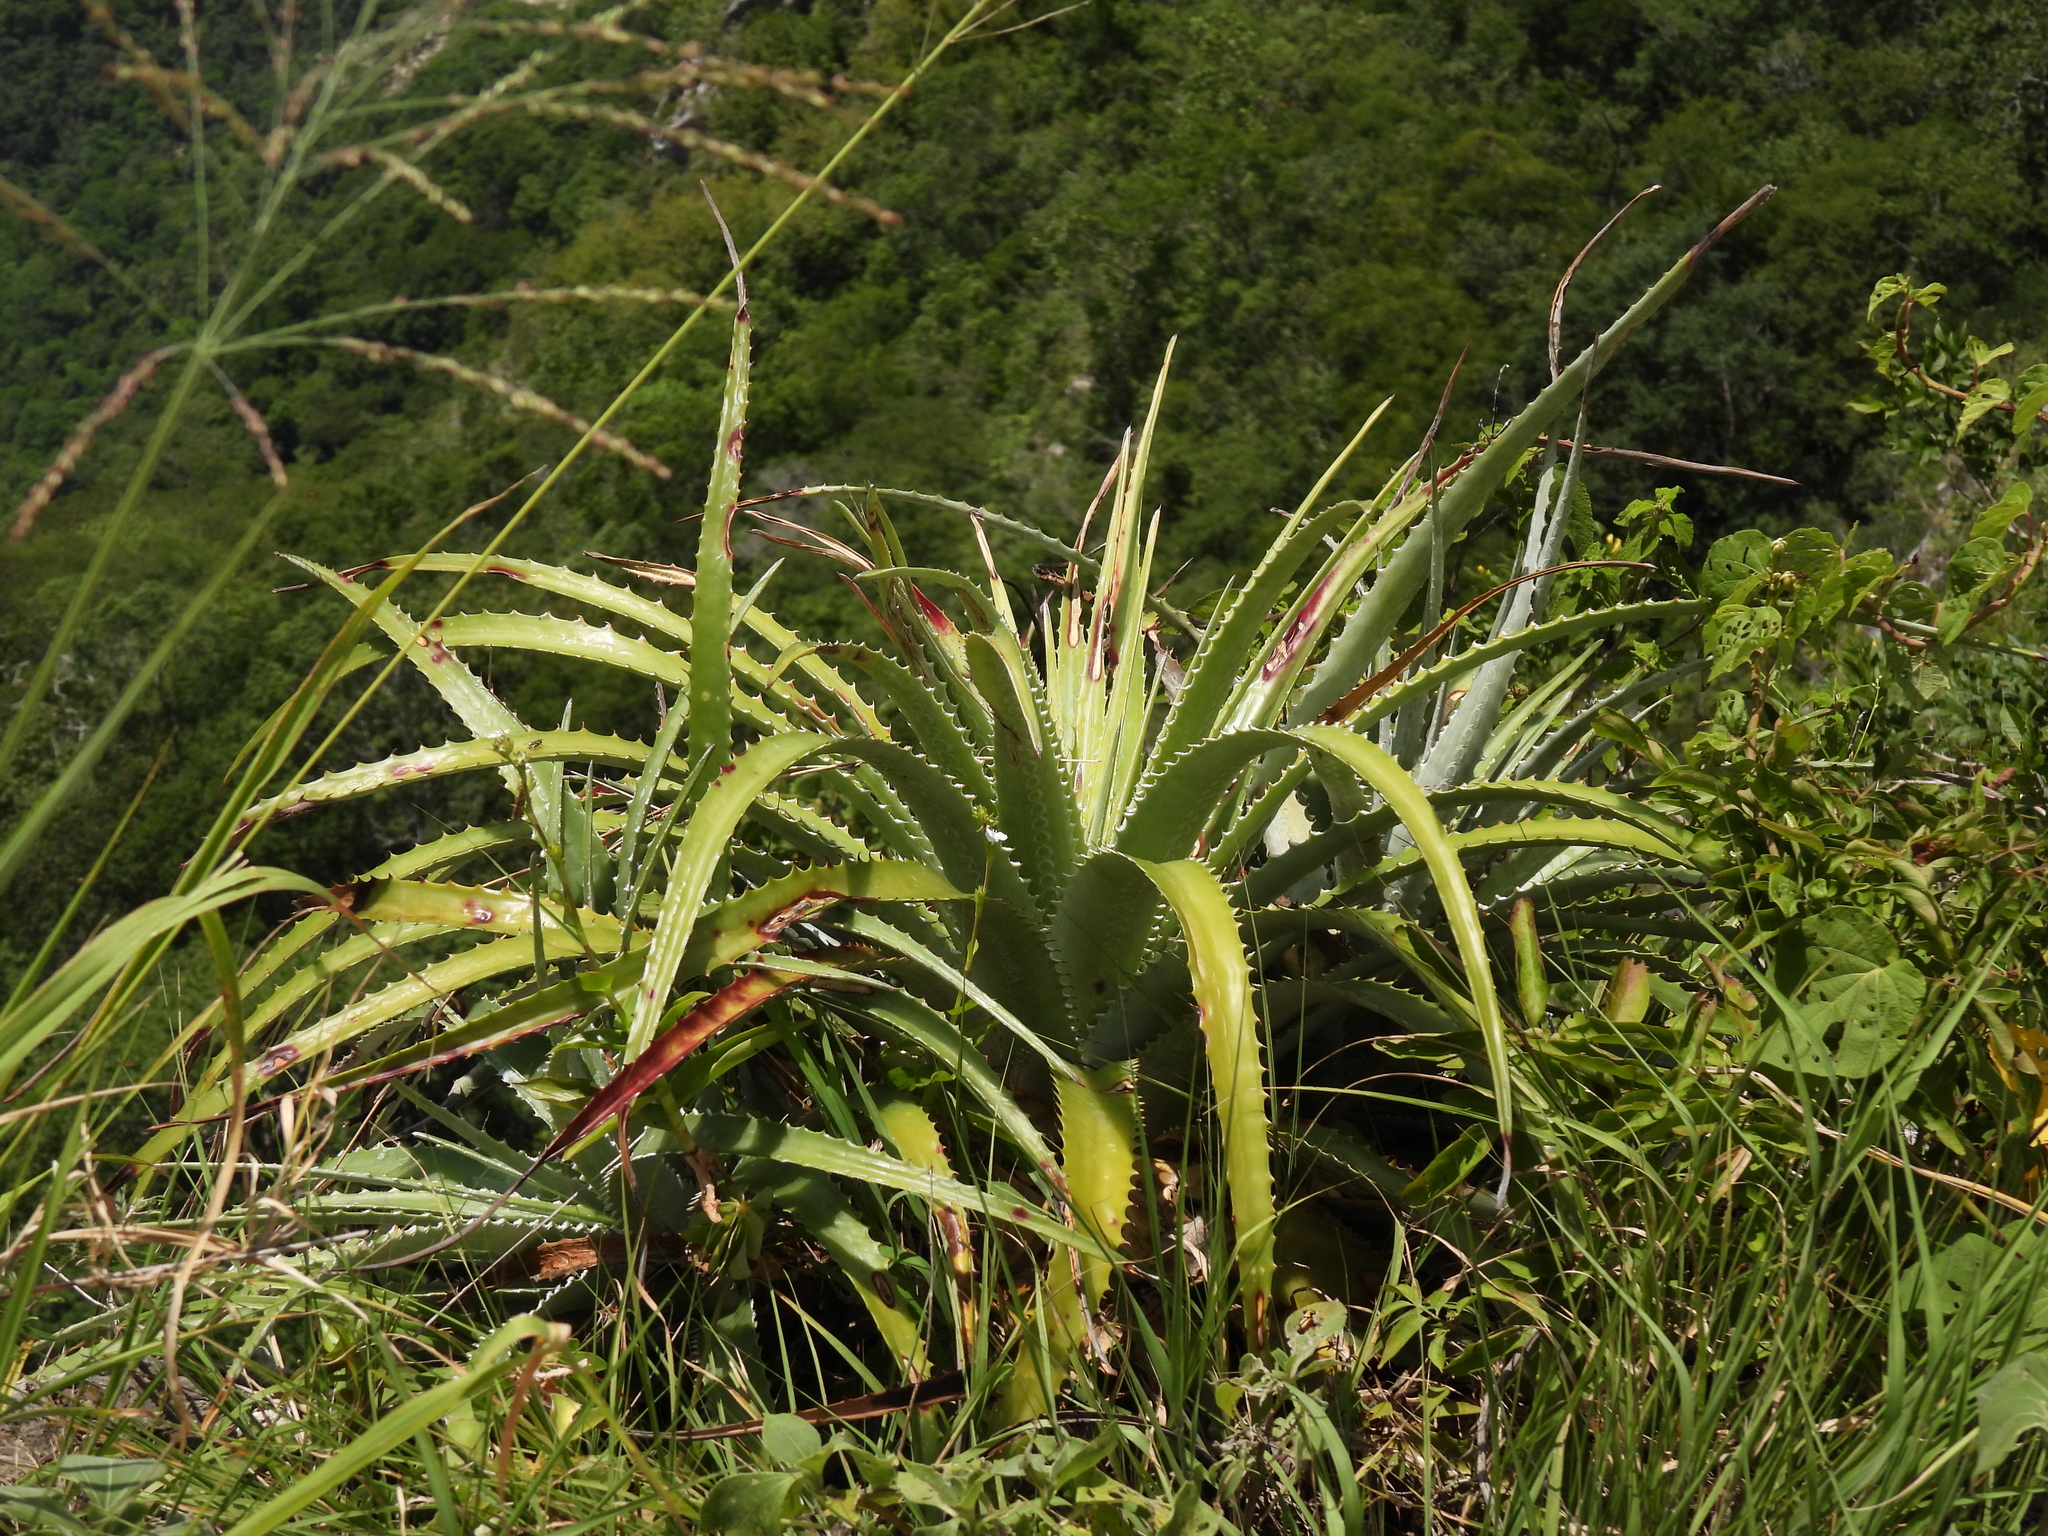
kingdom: Plantae
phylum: Tracheophyta
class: Liliopsida
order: Poales
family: Bromeliaceae
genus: Hechtia
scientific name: Hechtia glomerata
